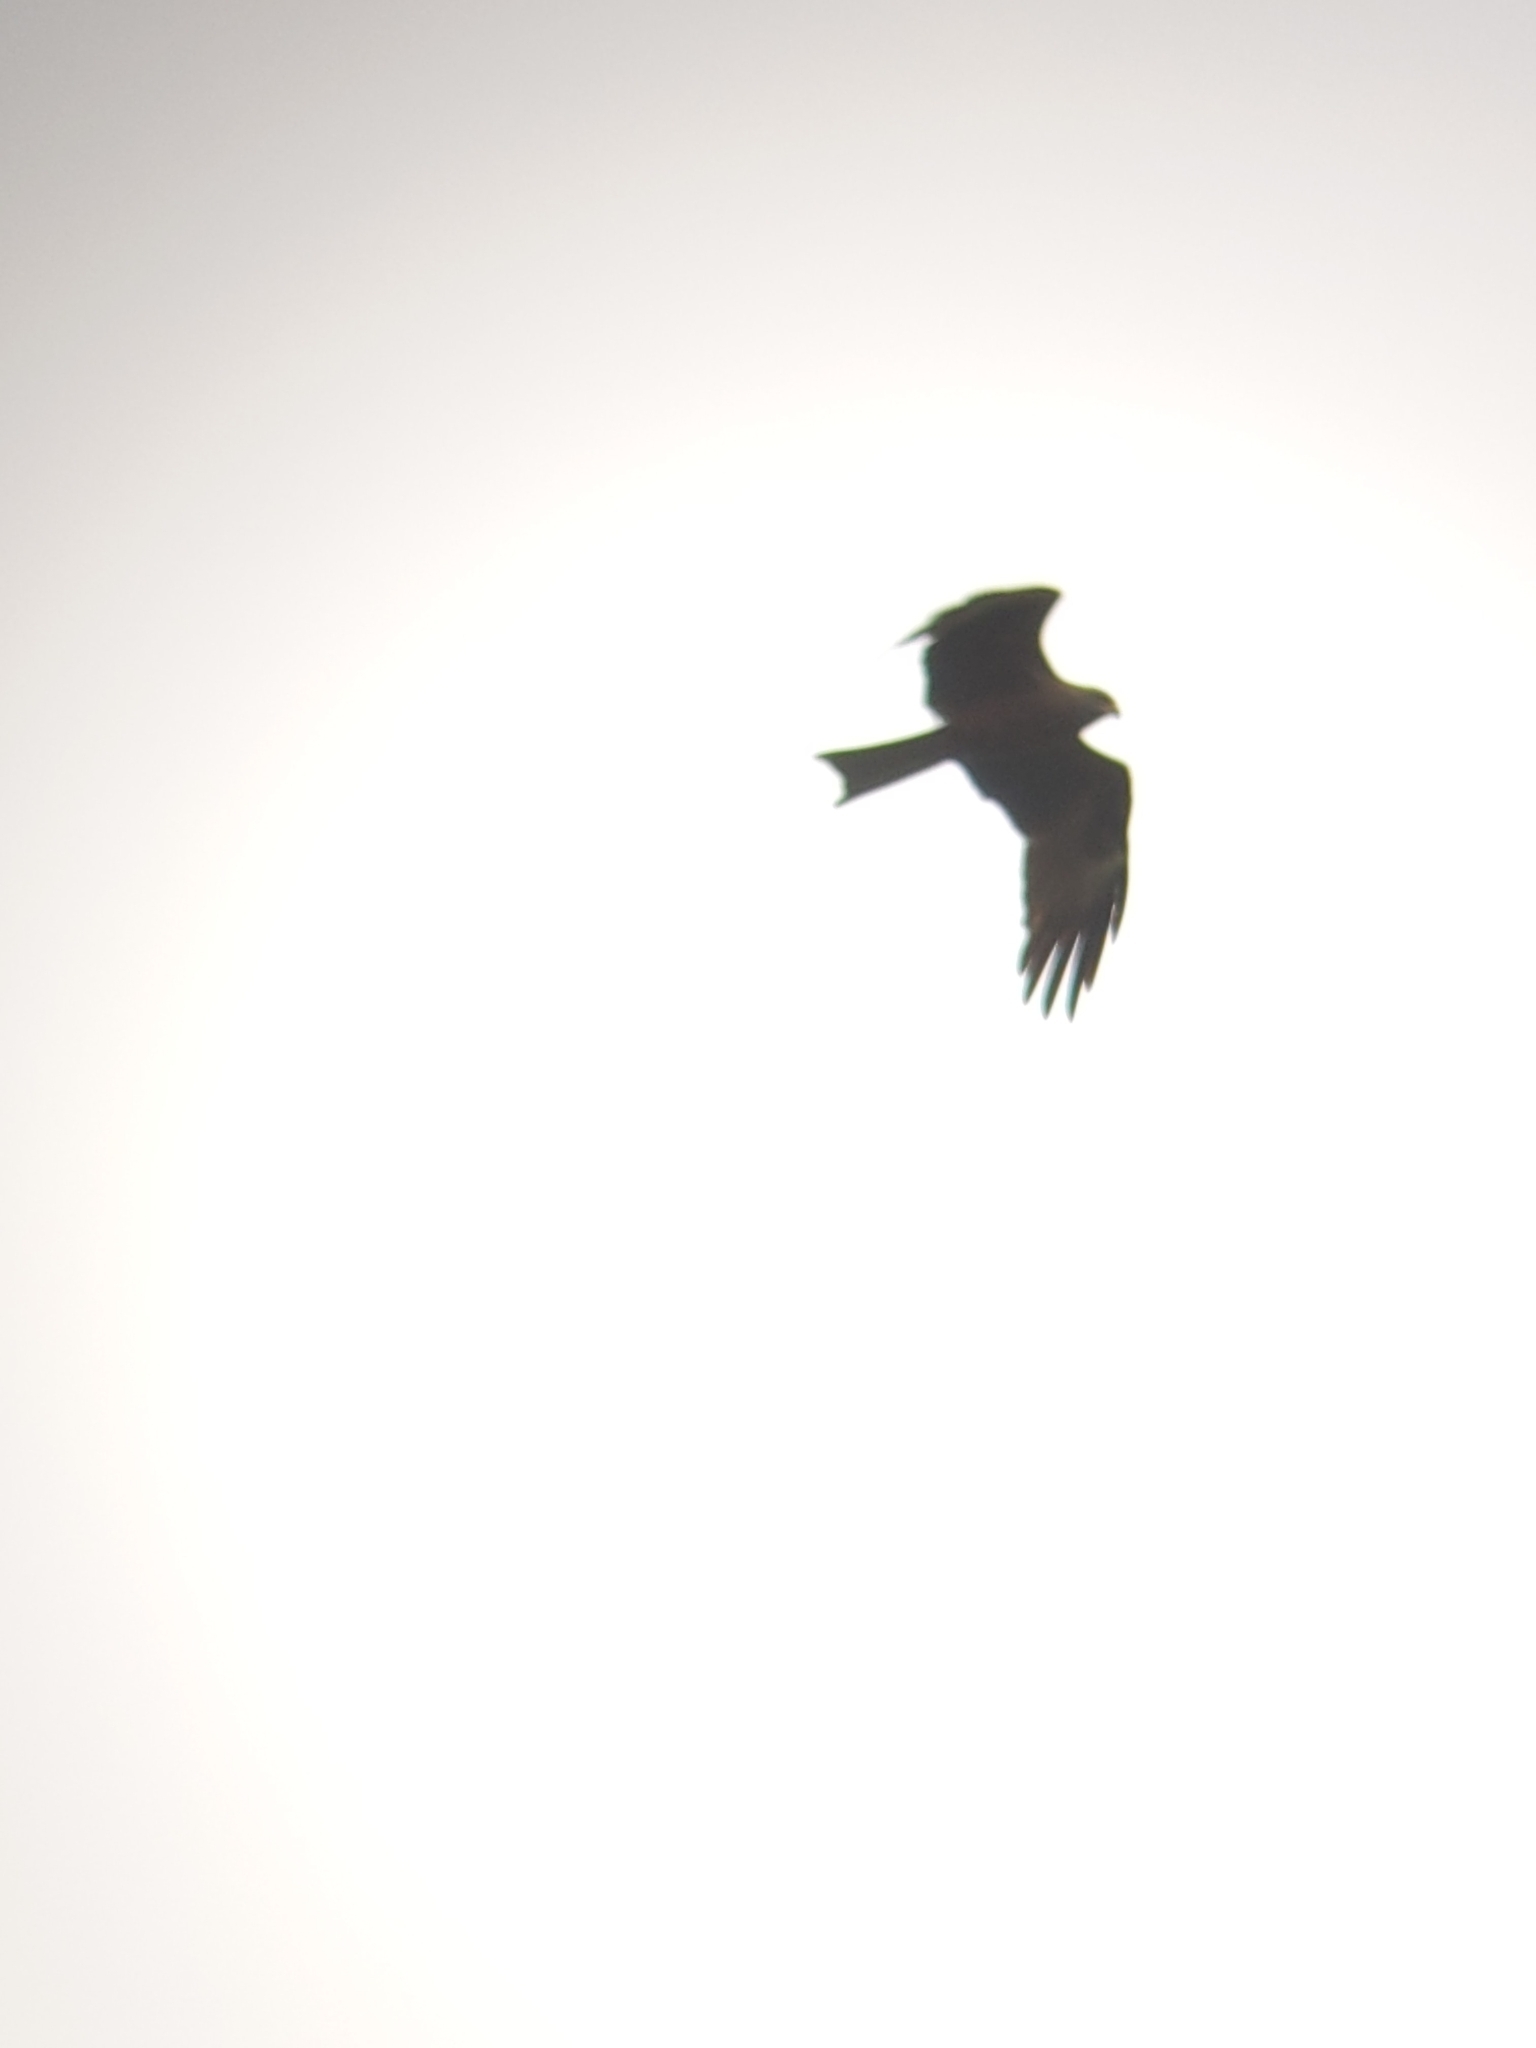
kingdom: Animalia
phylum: Chordata
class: Aves
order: Accipitriformes
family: Accipitridae
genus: Milvus
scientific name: Milvus migrans
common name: Black kite
